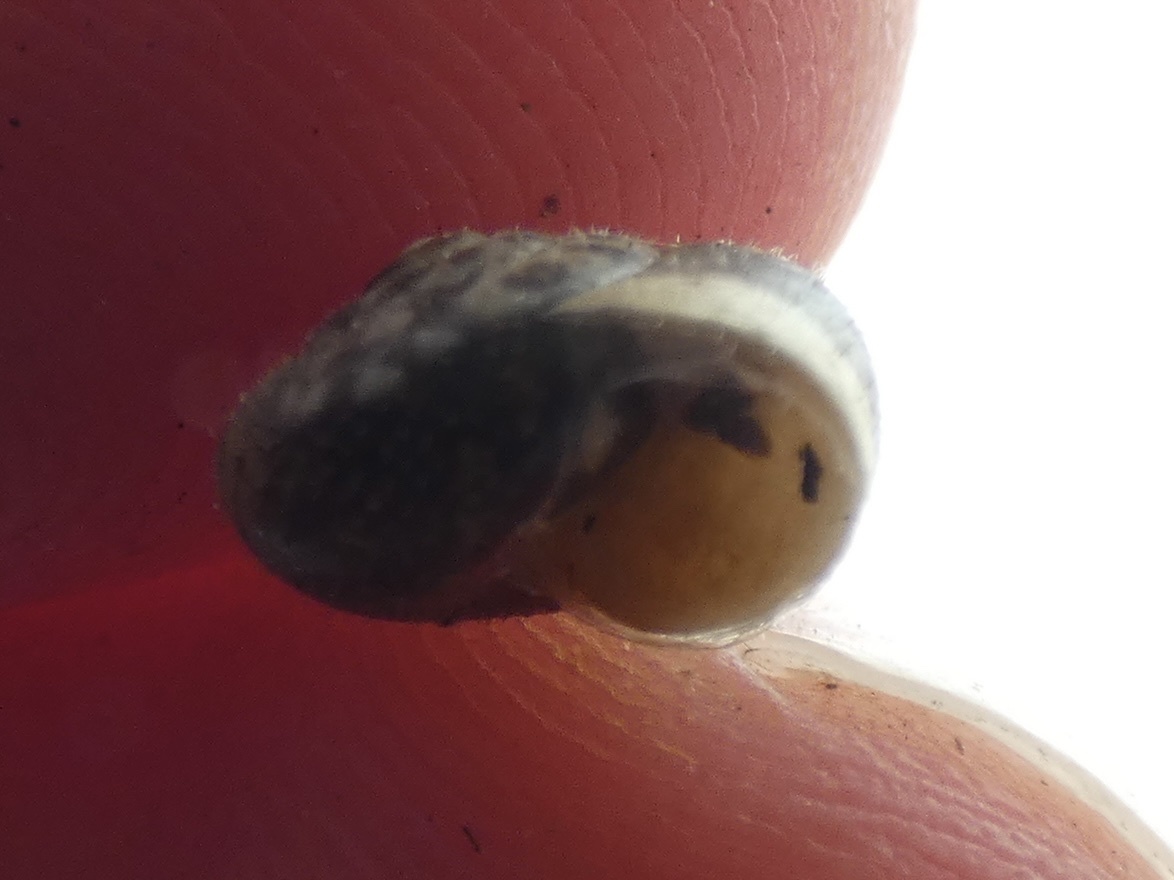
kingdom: Animalia
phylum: Mollusca
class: Gastropoda
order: Stylommatophora
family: Hygromiidae
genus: Monacha
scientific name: Monacha cantiana
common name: Kentish snail
